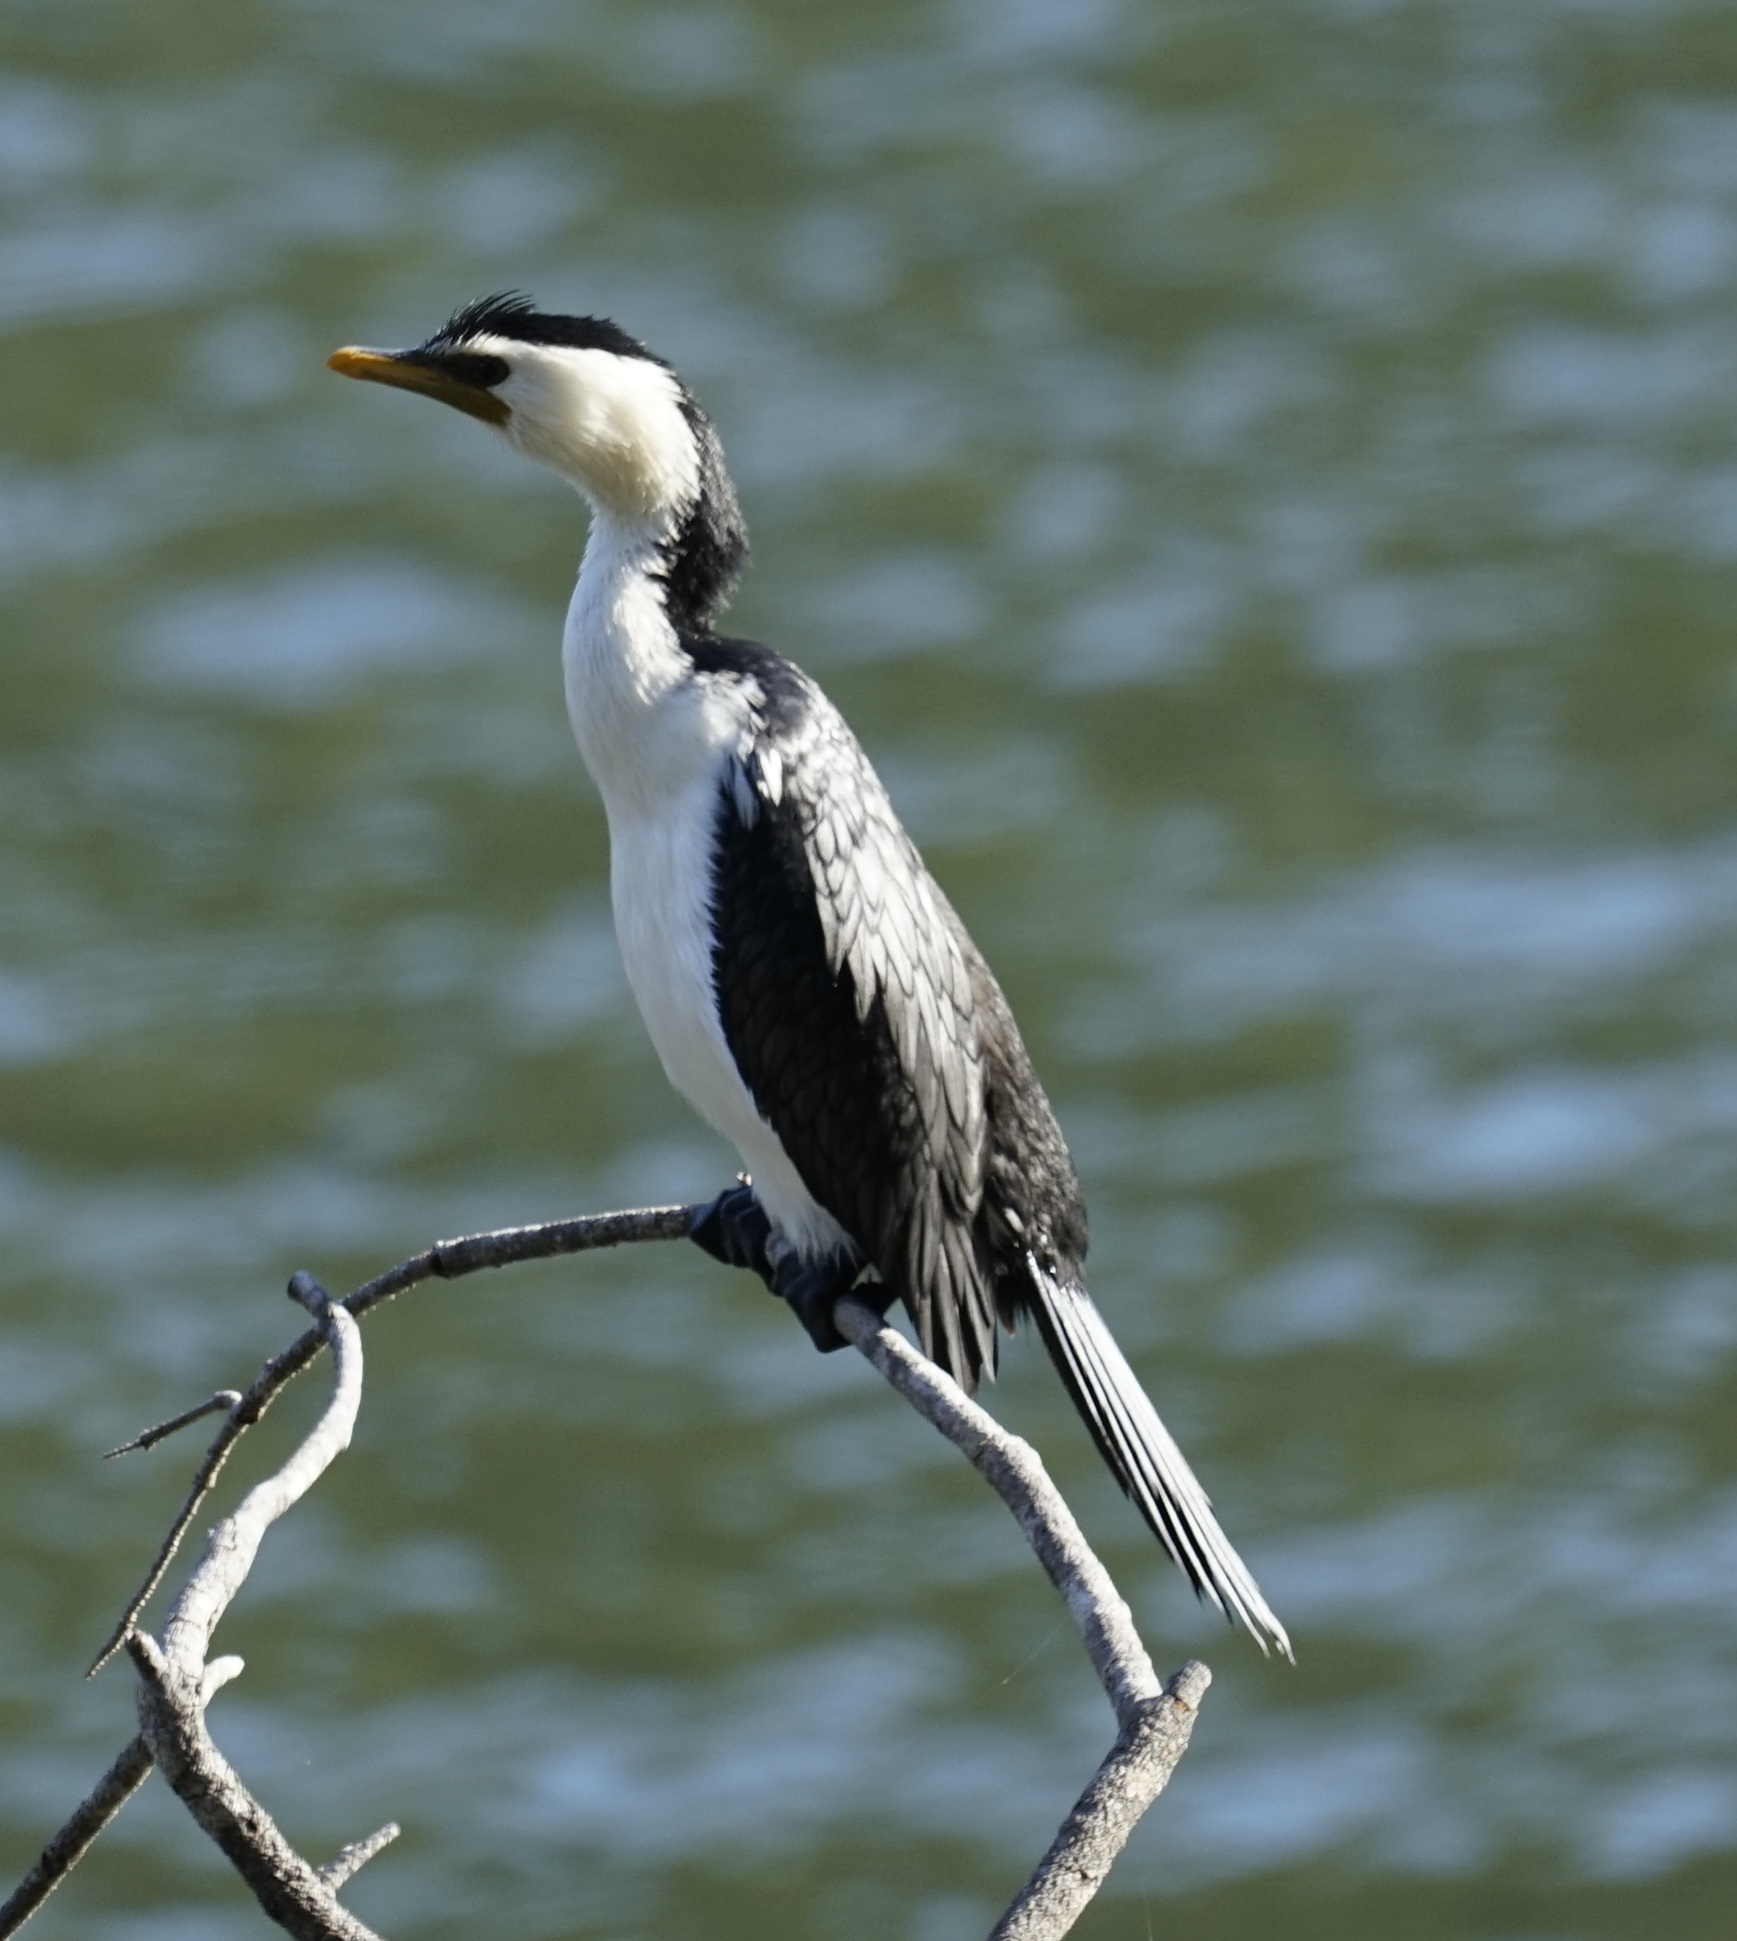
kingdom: Animalia
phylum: Chordata
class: Aves
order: Suliformes
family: Phalacrocoracidae
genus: Microcarbo
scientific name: Microcarbo melanoleucos
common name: Little pied cormorant
